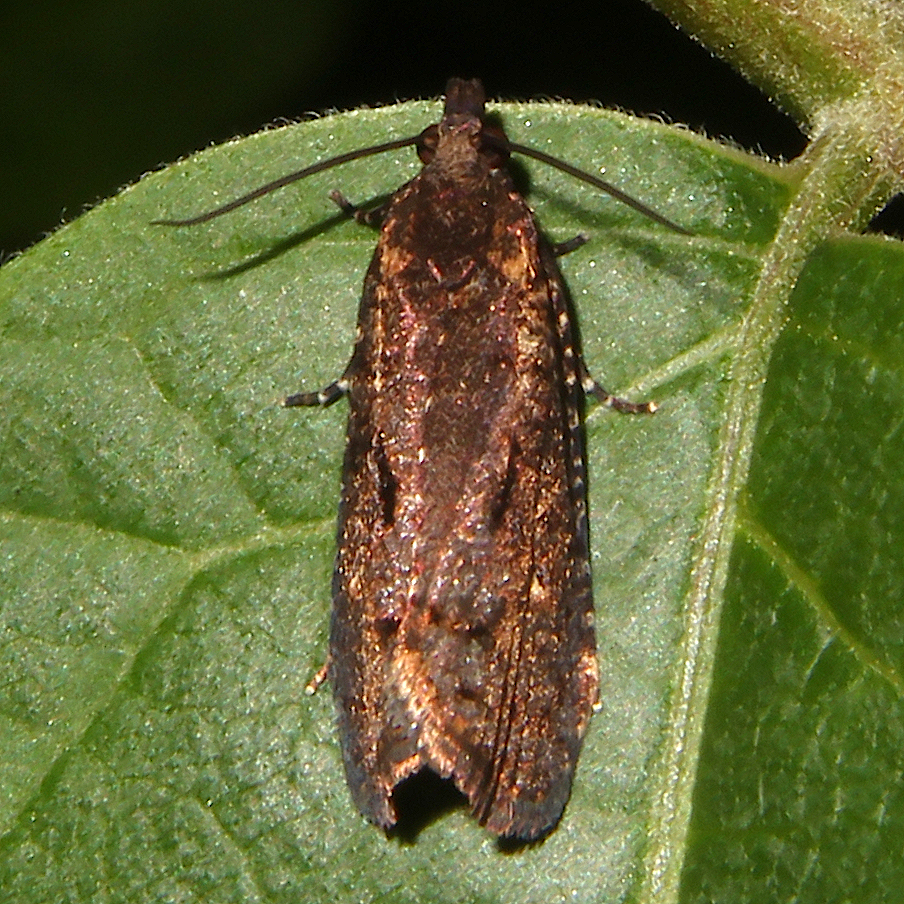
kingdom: Animalia
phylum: Arthropoda
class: Insecta
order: Lepidoptera
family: Tortricidae
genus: Cryptaspasma
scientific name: Cryptaspasma querula
